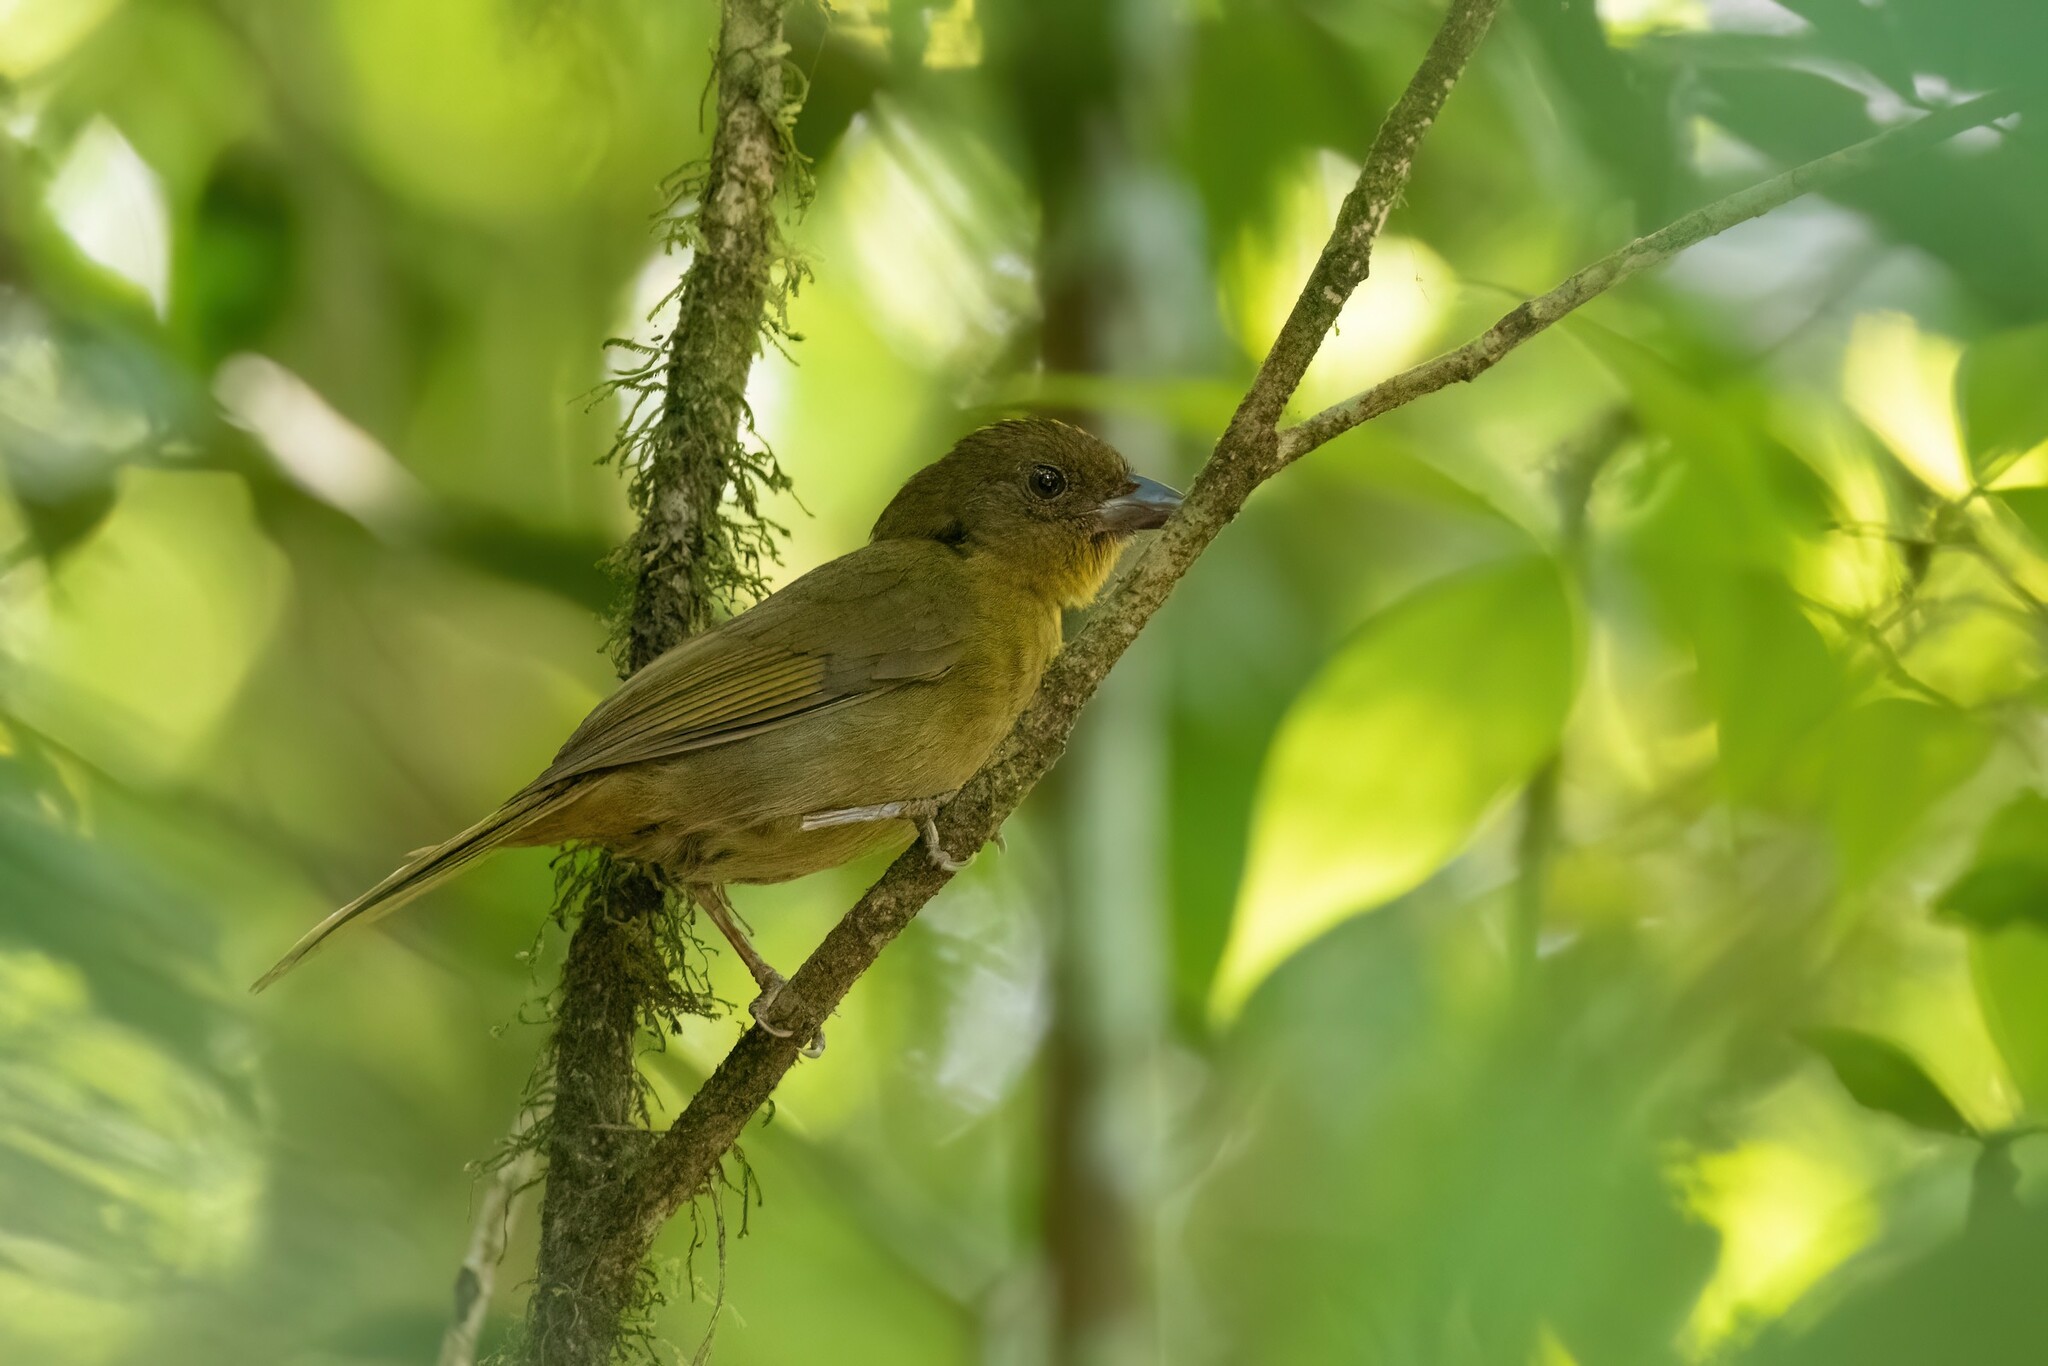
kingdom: Animalia
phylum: Chordata
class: Aves
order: Passeriformes
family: Cardinalidae
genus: Habia
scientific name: Habia rubica
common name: Red-crowned ant-tanager
